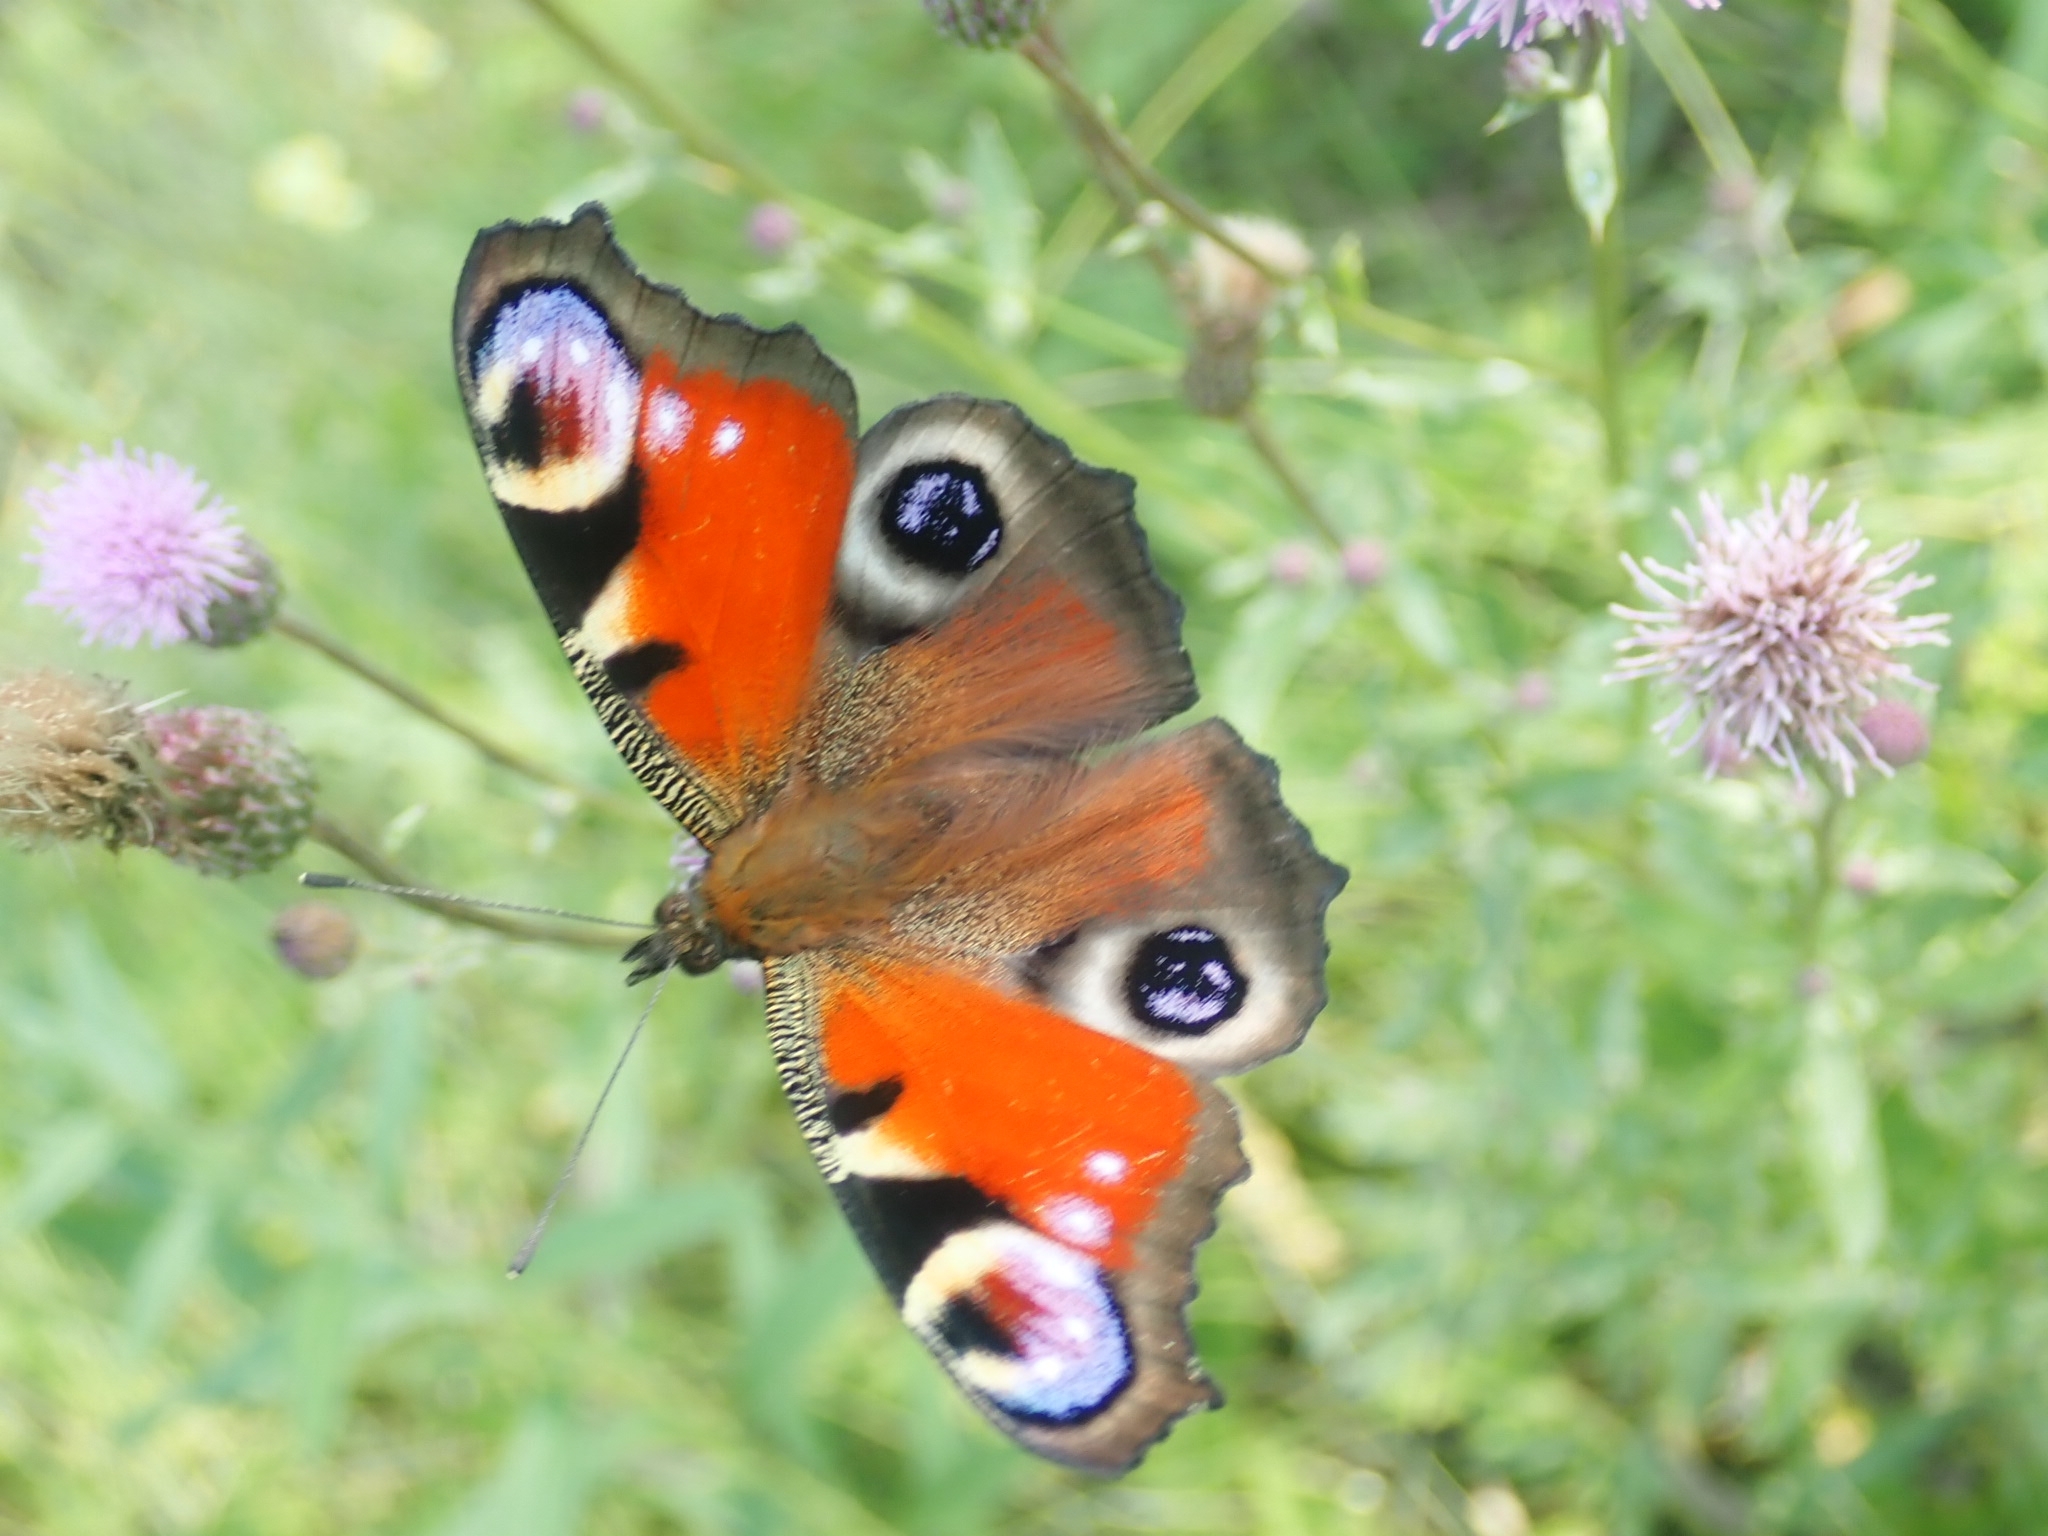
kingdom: Animalia
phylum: Arthropoda
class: Insecta
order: Lepidoptera
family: Nymphalidae
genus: Aglais
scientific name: Aglais io
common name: Peacock
